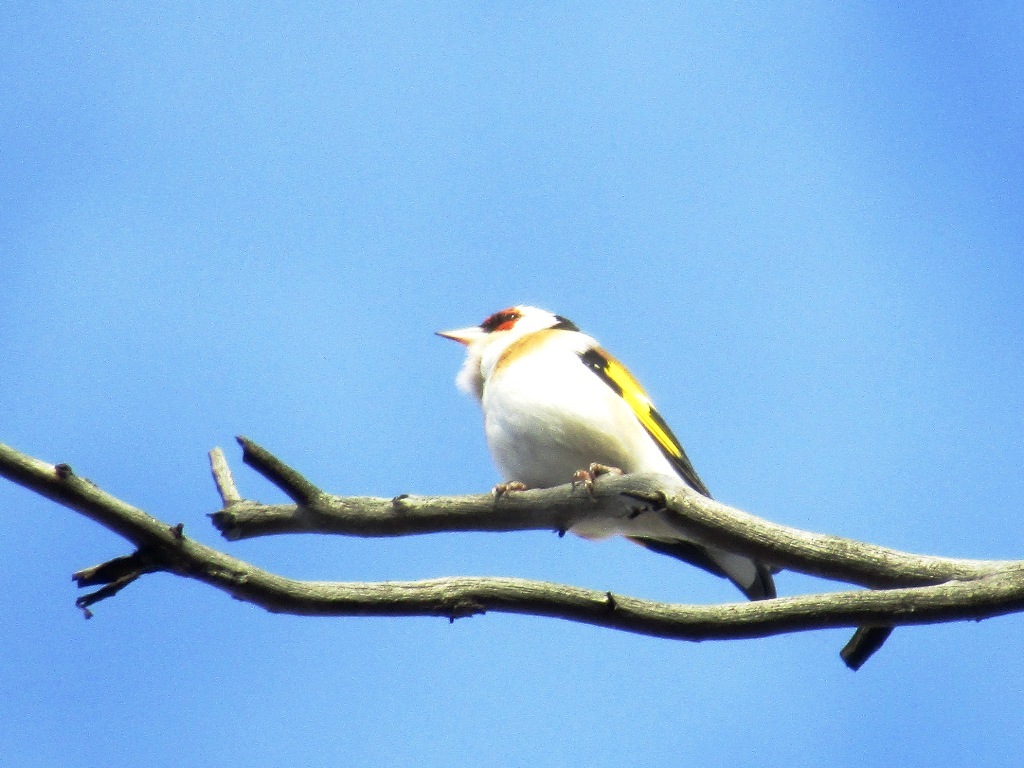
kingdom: Animalia
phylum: Chordata
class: Aves
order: Passeriformes
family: Fringillidae
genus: Carduelis
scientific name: Carduelis carduelis
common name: European goldfinch
